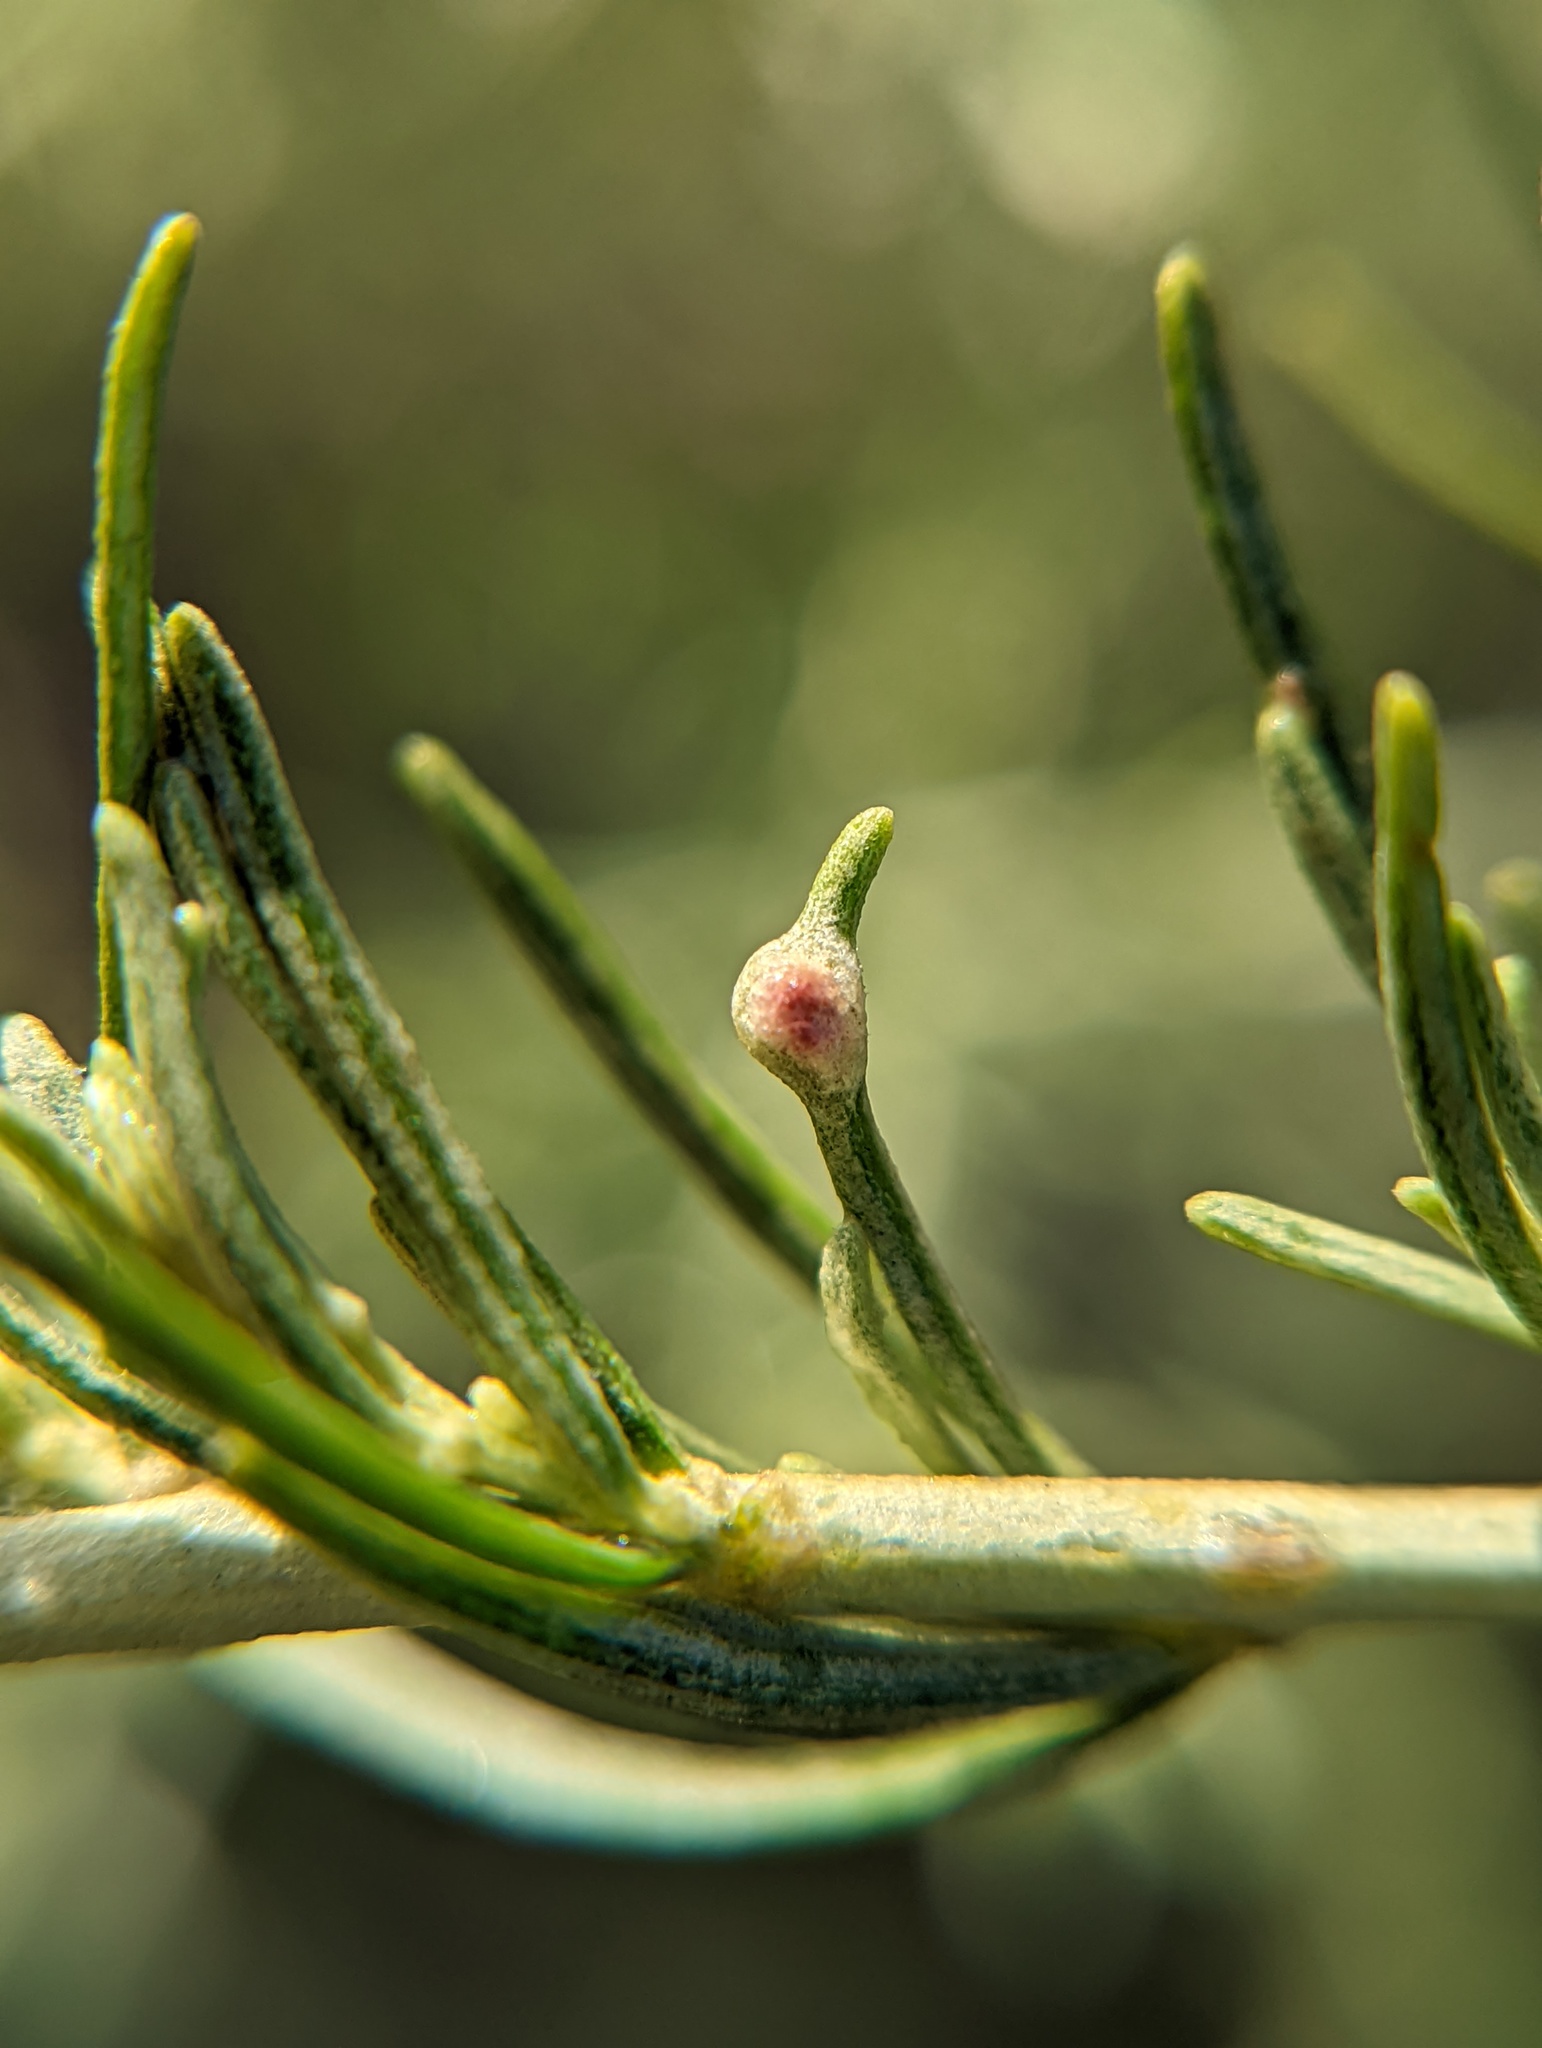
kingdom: Animalia
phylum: Arthropoda
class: Arachnida
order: Trombidiformes
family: Eriophyidae
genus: Aceria
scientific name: Aceria
